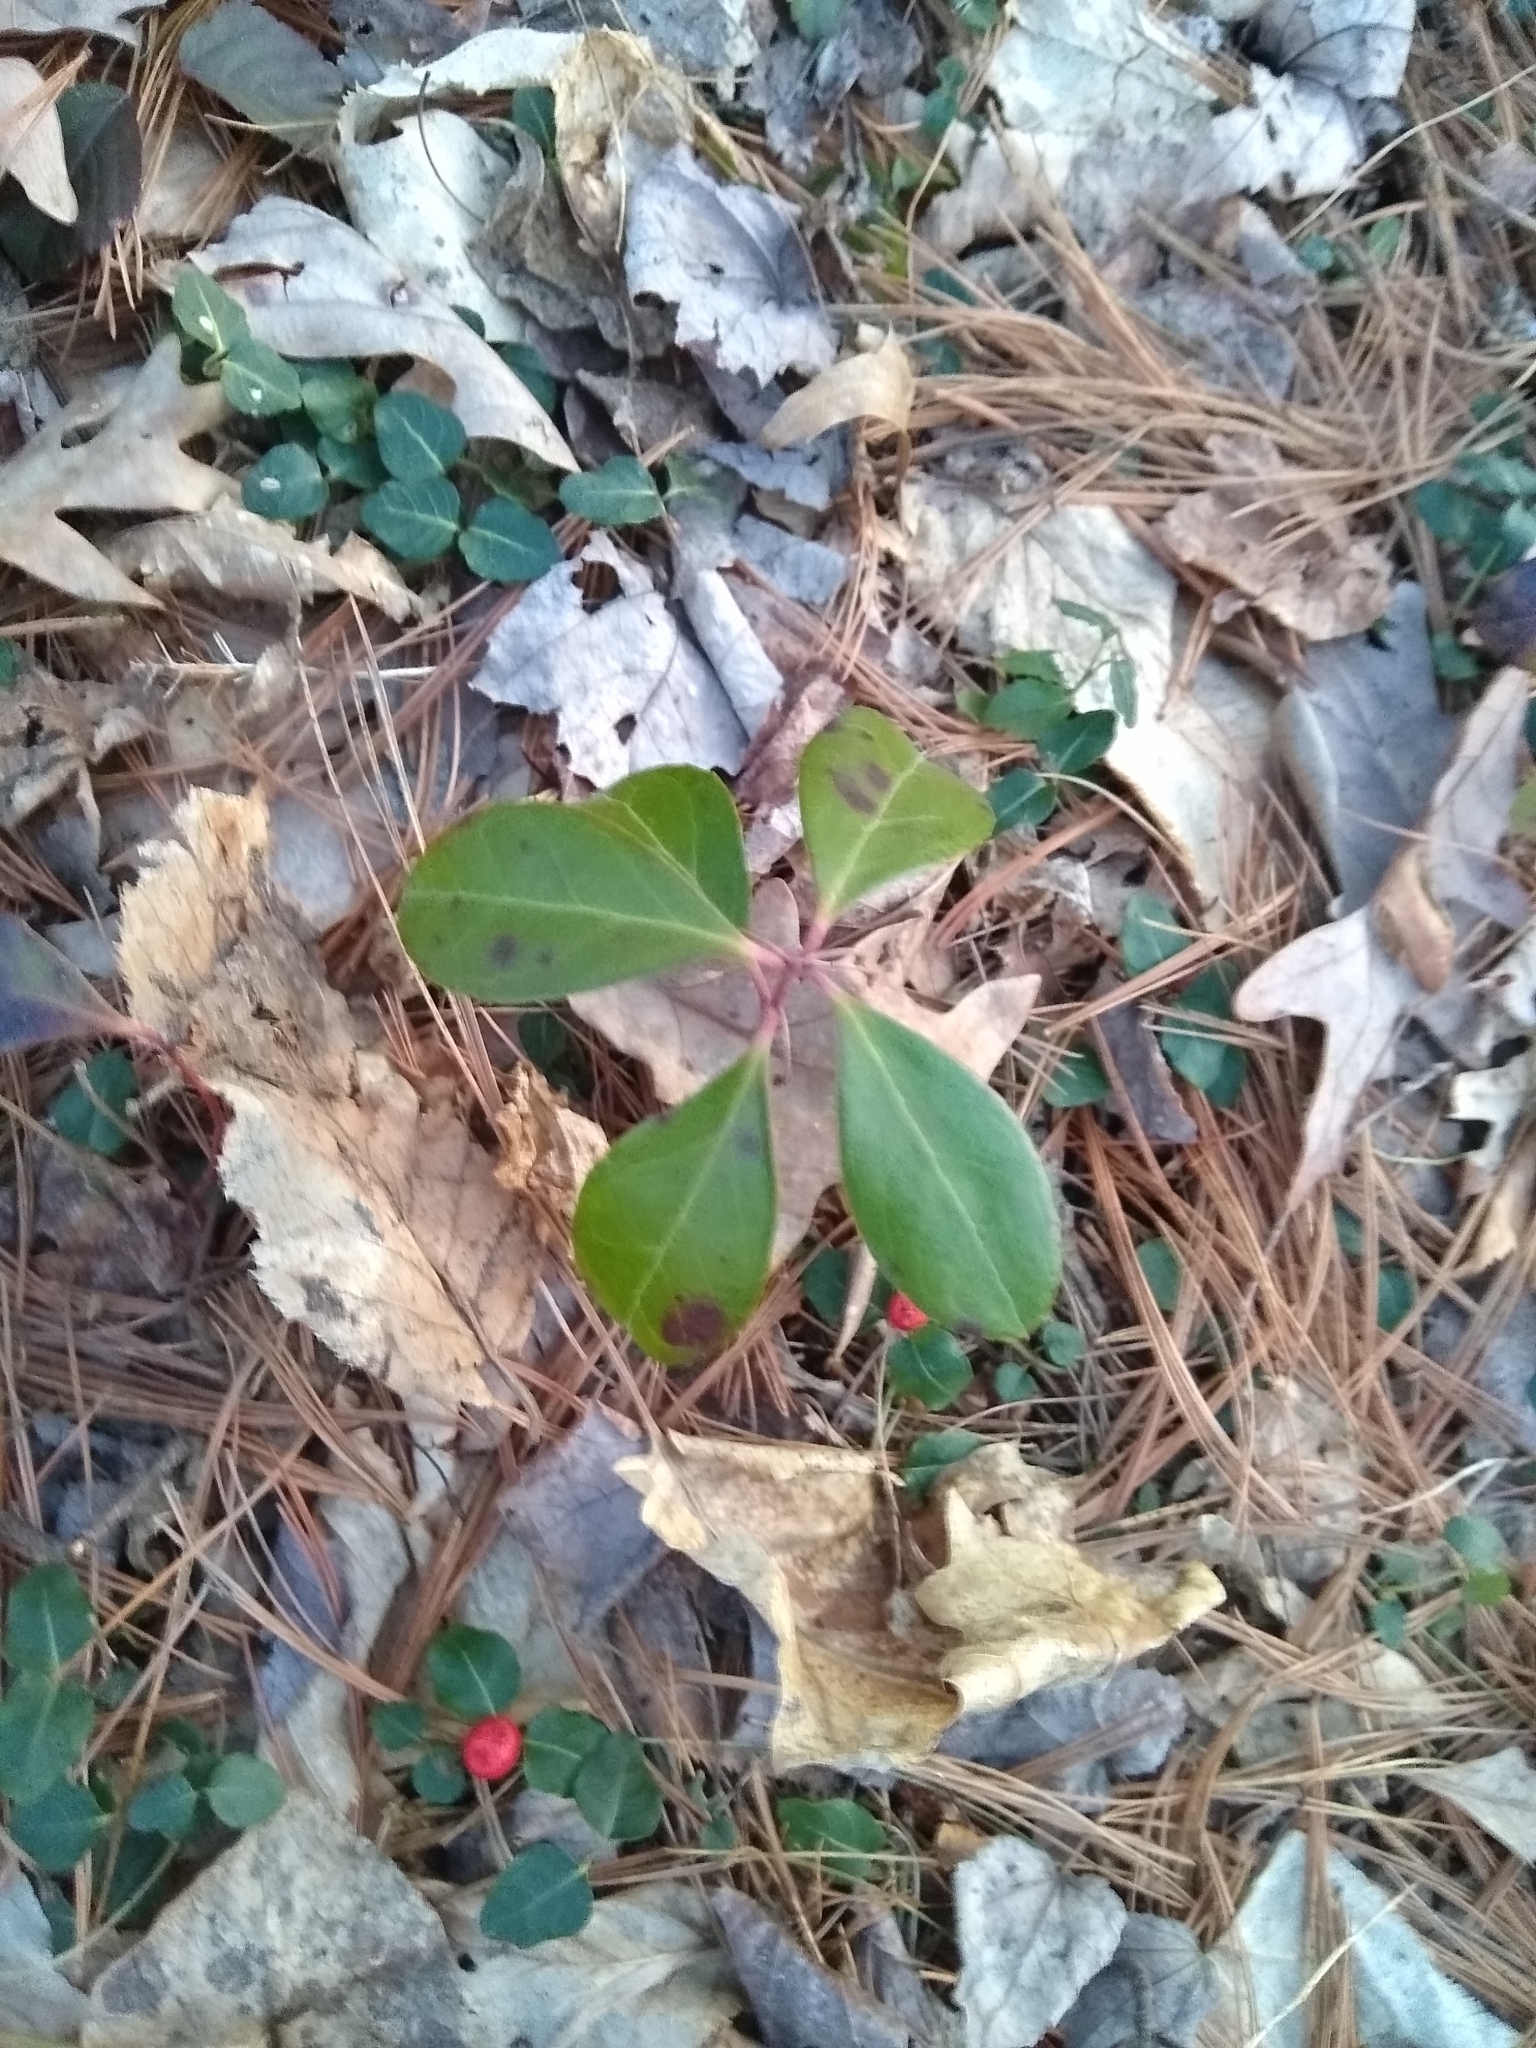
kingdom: Plantae
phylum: Tracheophyta
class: Magnoliopsida
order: Ericales
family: Ericaceae
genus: Gaultheria
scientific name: Gaultheria procumbens
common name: Checkerberry
